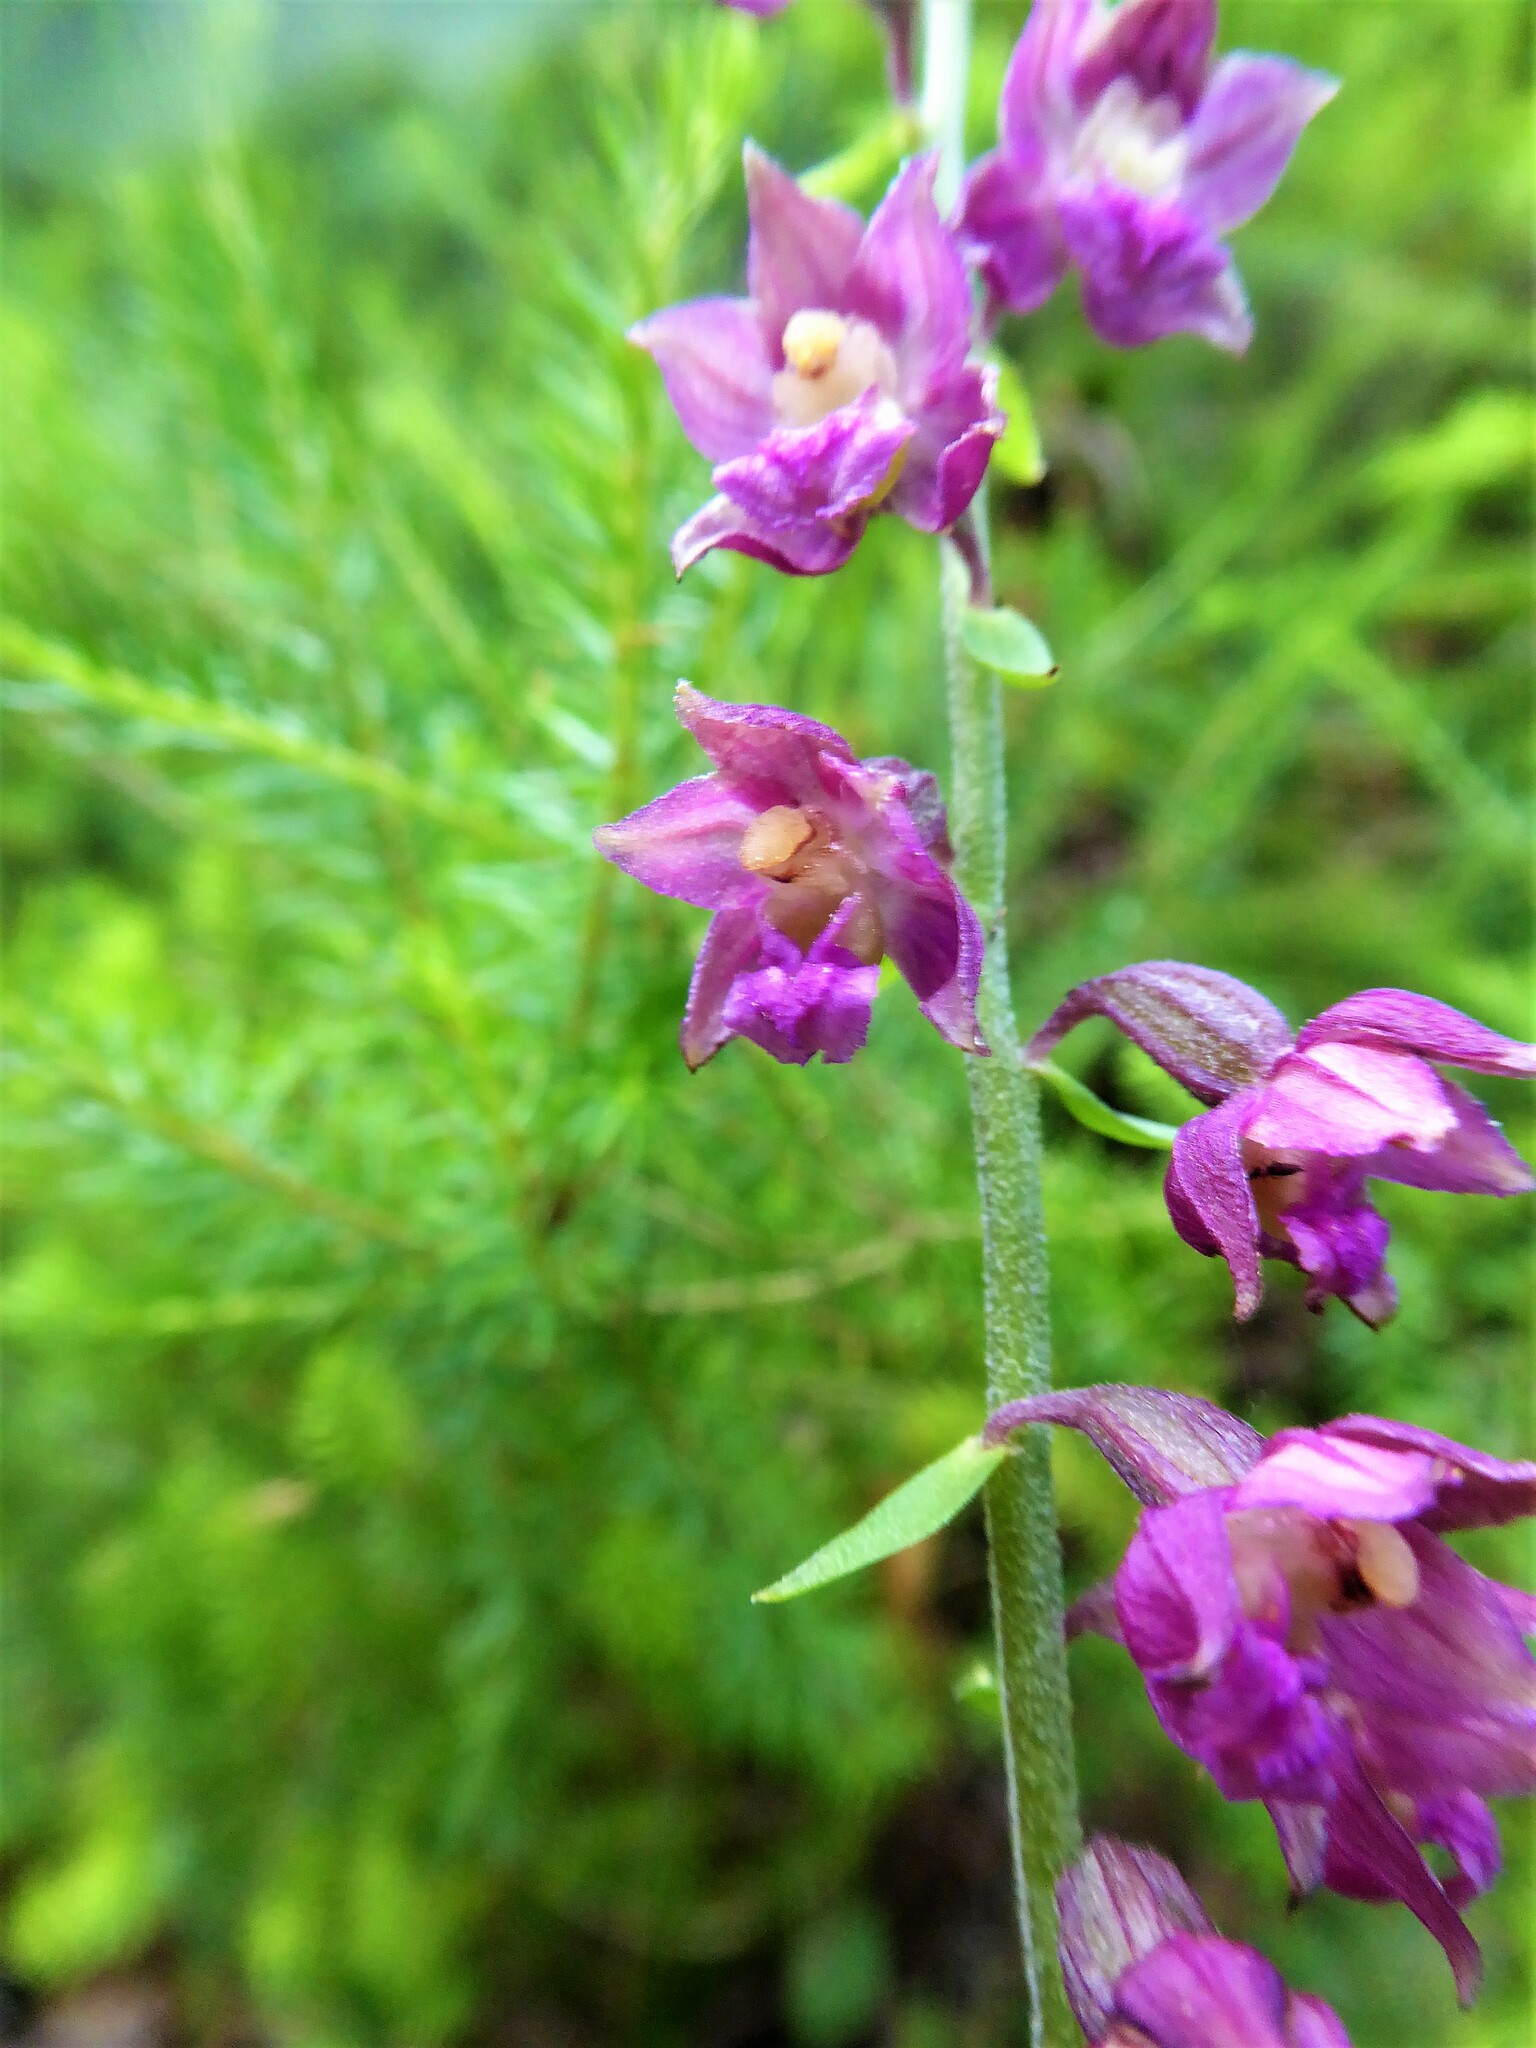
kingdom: Plantae
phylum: Tracheophyta
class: Liliopsida
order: Asparagales
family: Orchidaceae
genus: Epipactis
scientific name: Epipactis atrorubens
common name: Dark-red helleborine
